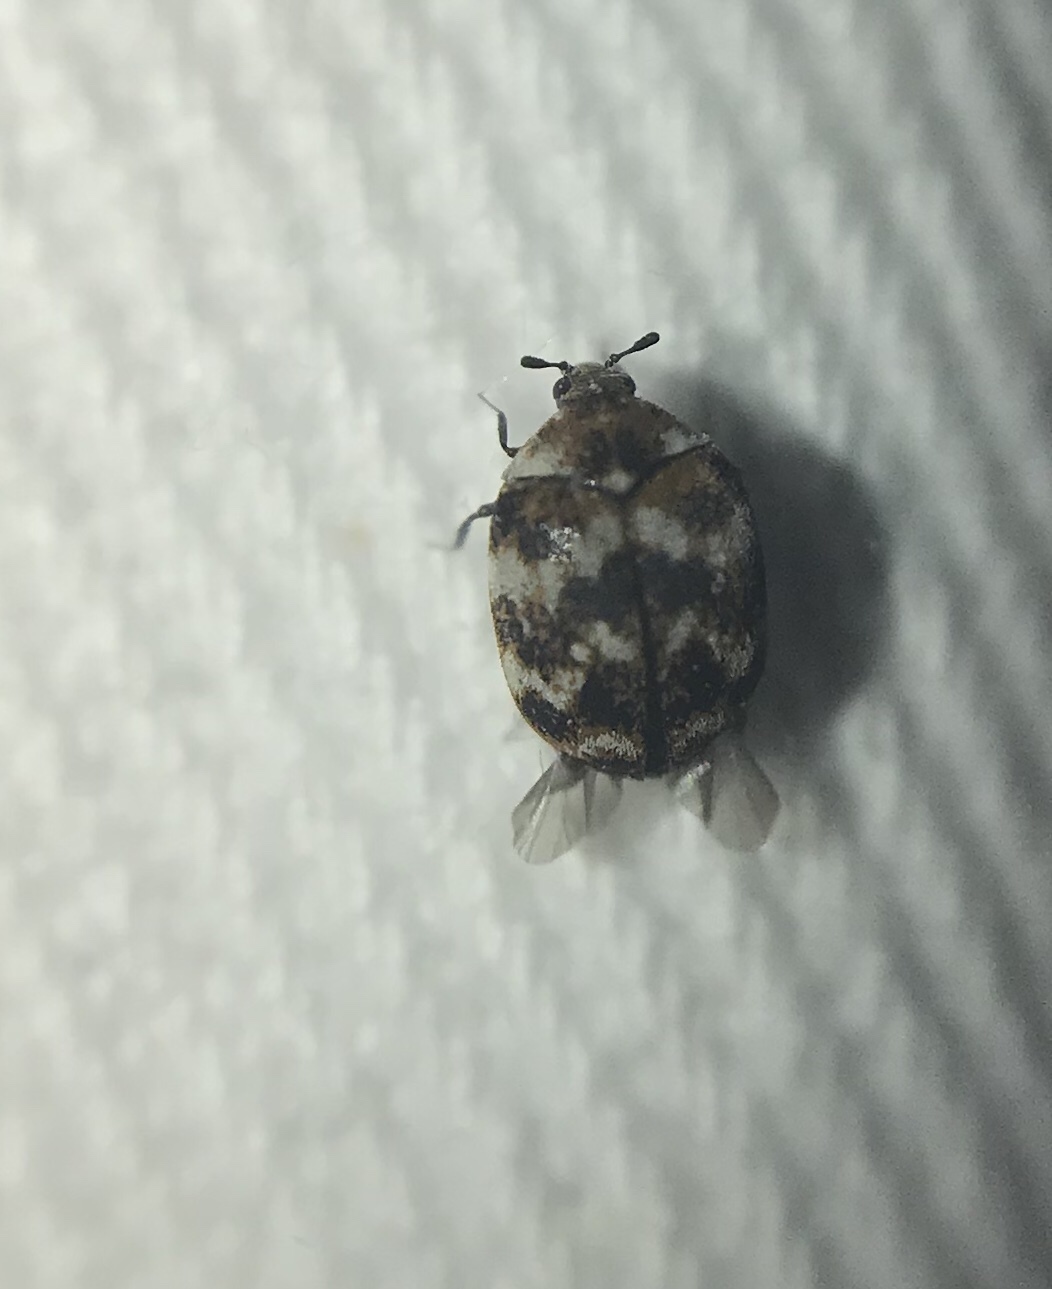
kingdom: Animalia
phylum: Arthropoda
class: Insecta
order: Coleoptera
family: Dermestidae
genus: Anthrenus
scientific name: Anthrenus verbasci
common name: Varied carpet beetle
